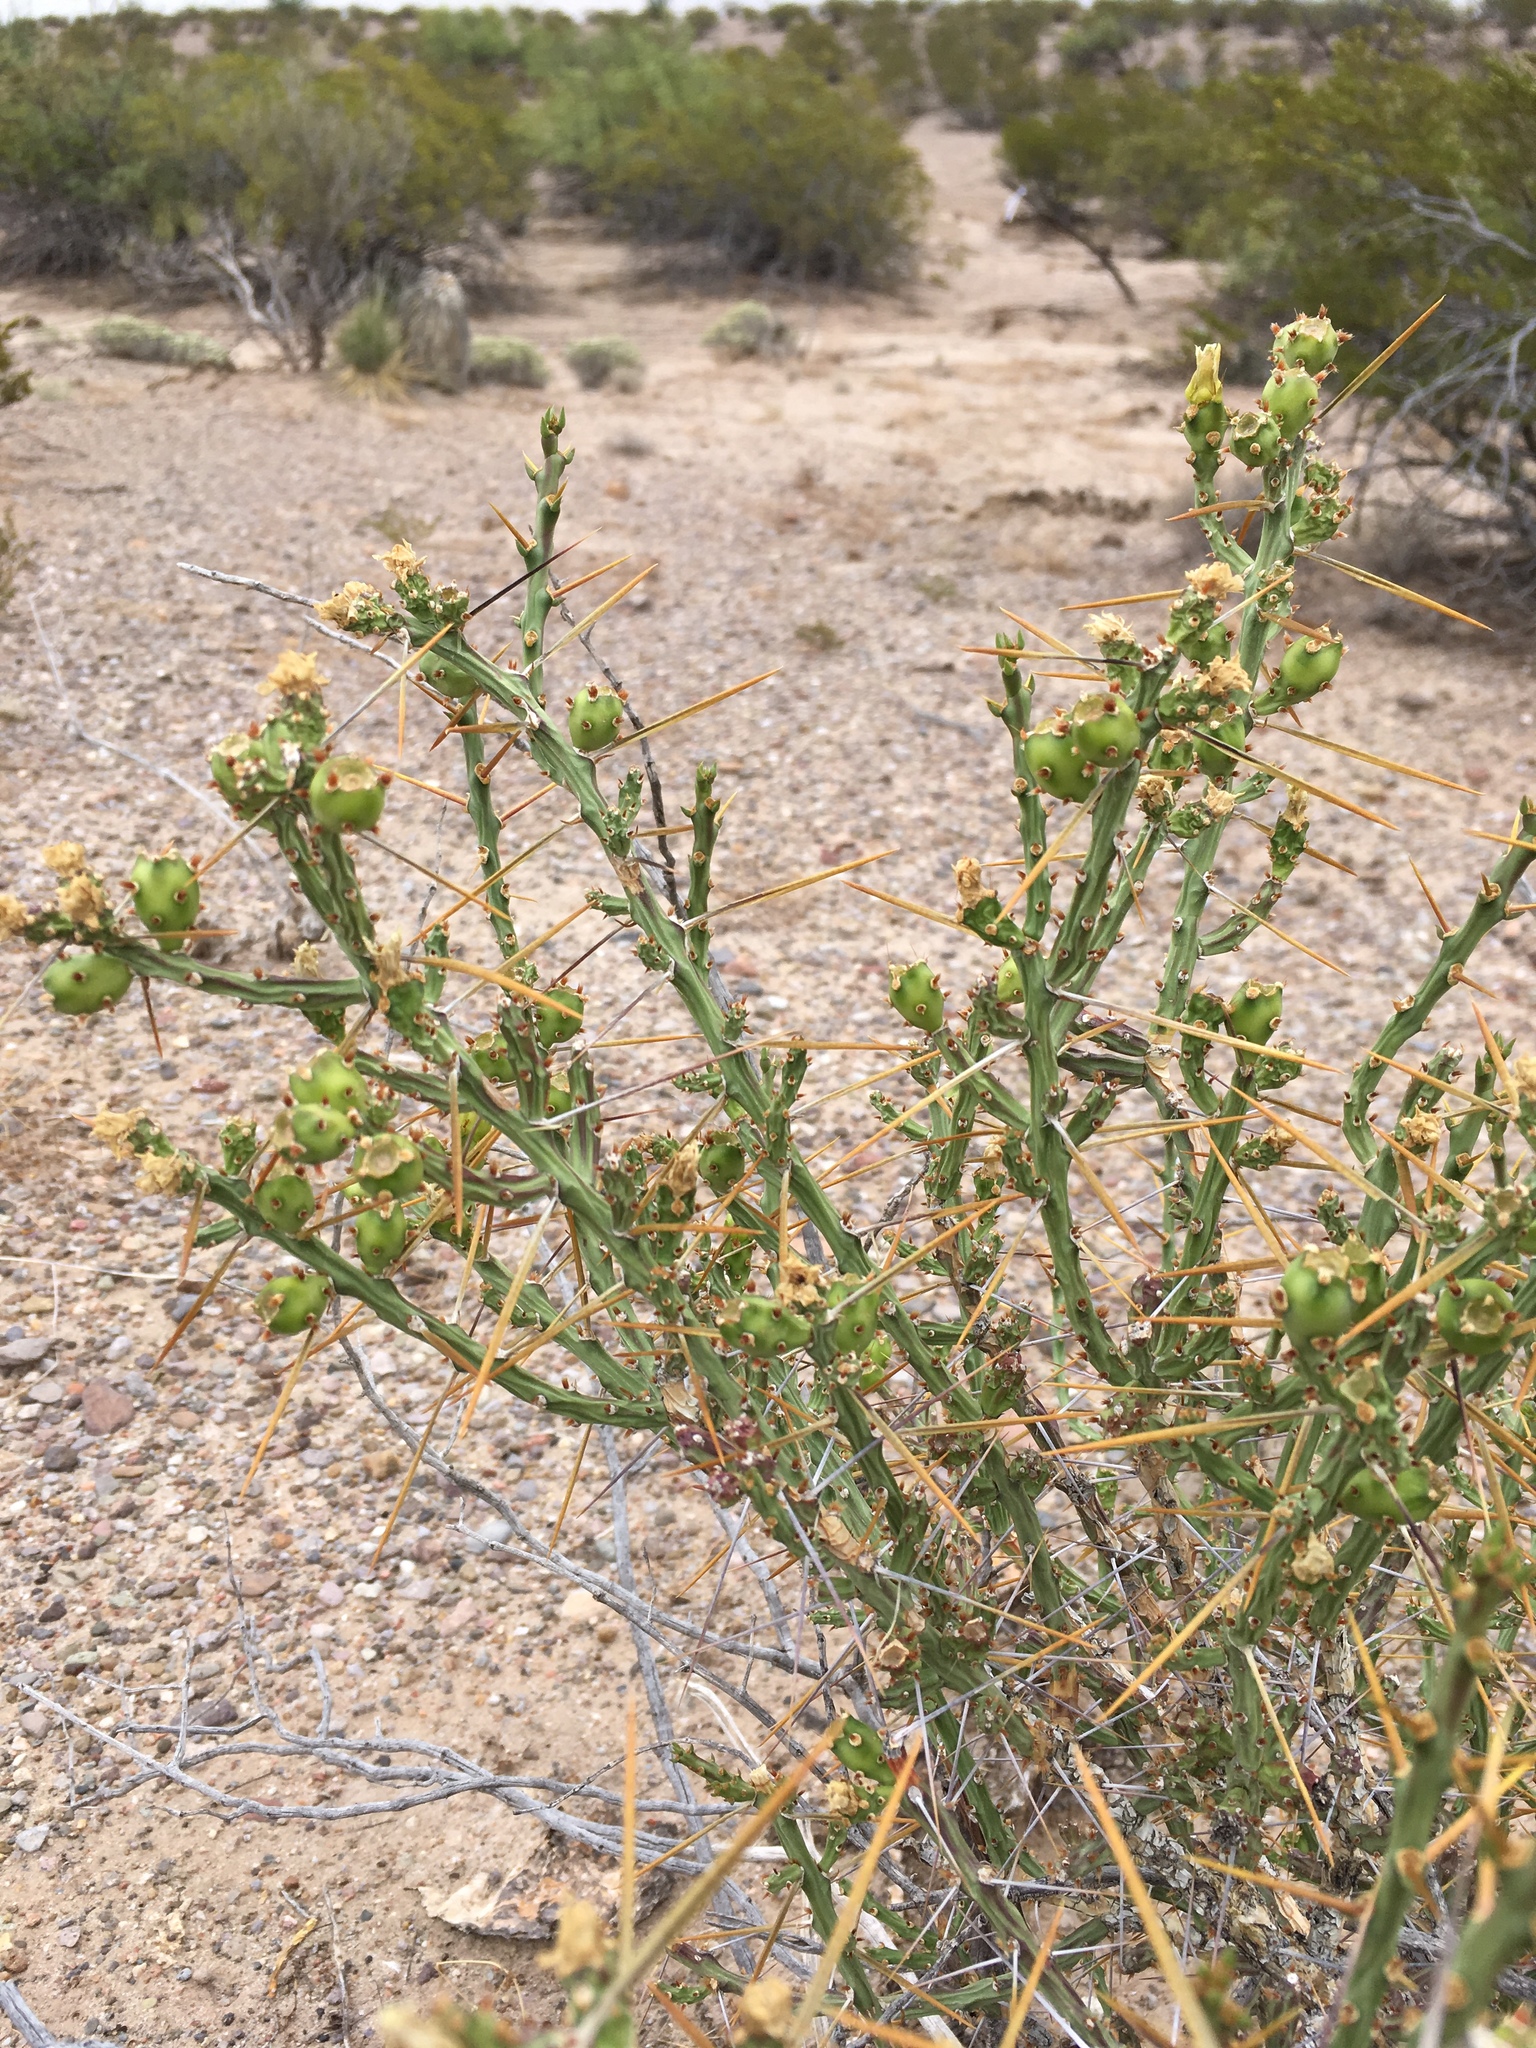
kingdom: Plantae
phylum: Tracheophyta
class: Magnoliopsida
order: Caryophyllales
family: Cactaceae
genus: Cylindropuntia
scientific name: Cylindropuntia leptocaulis
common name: Christmas cactus
